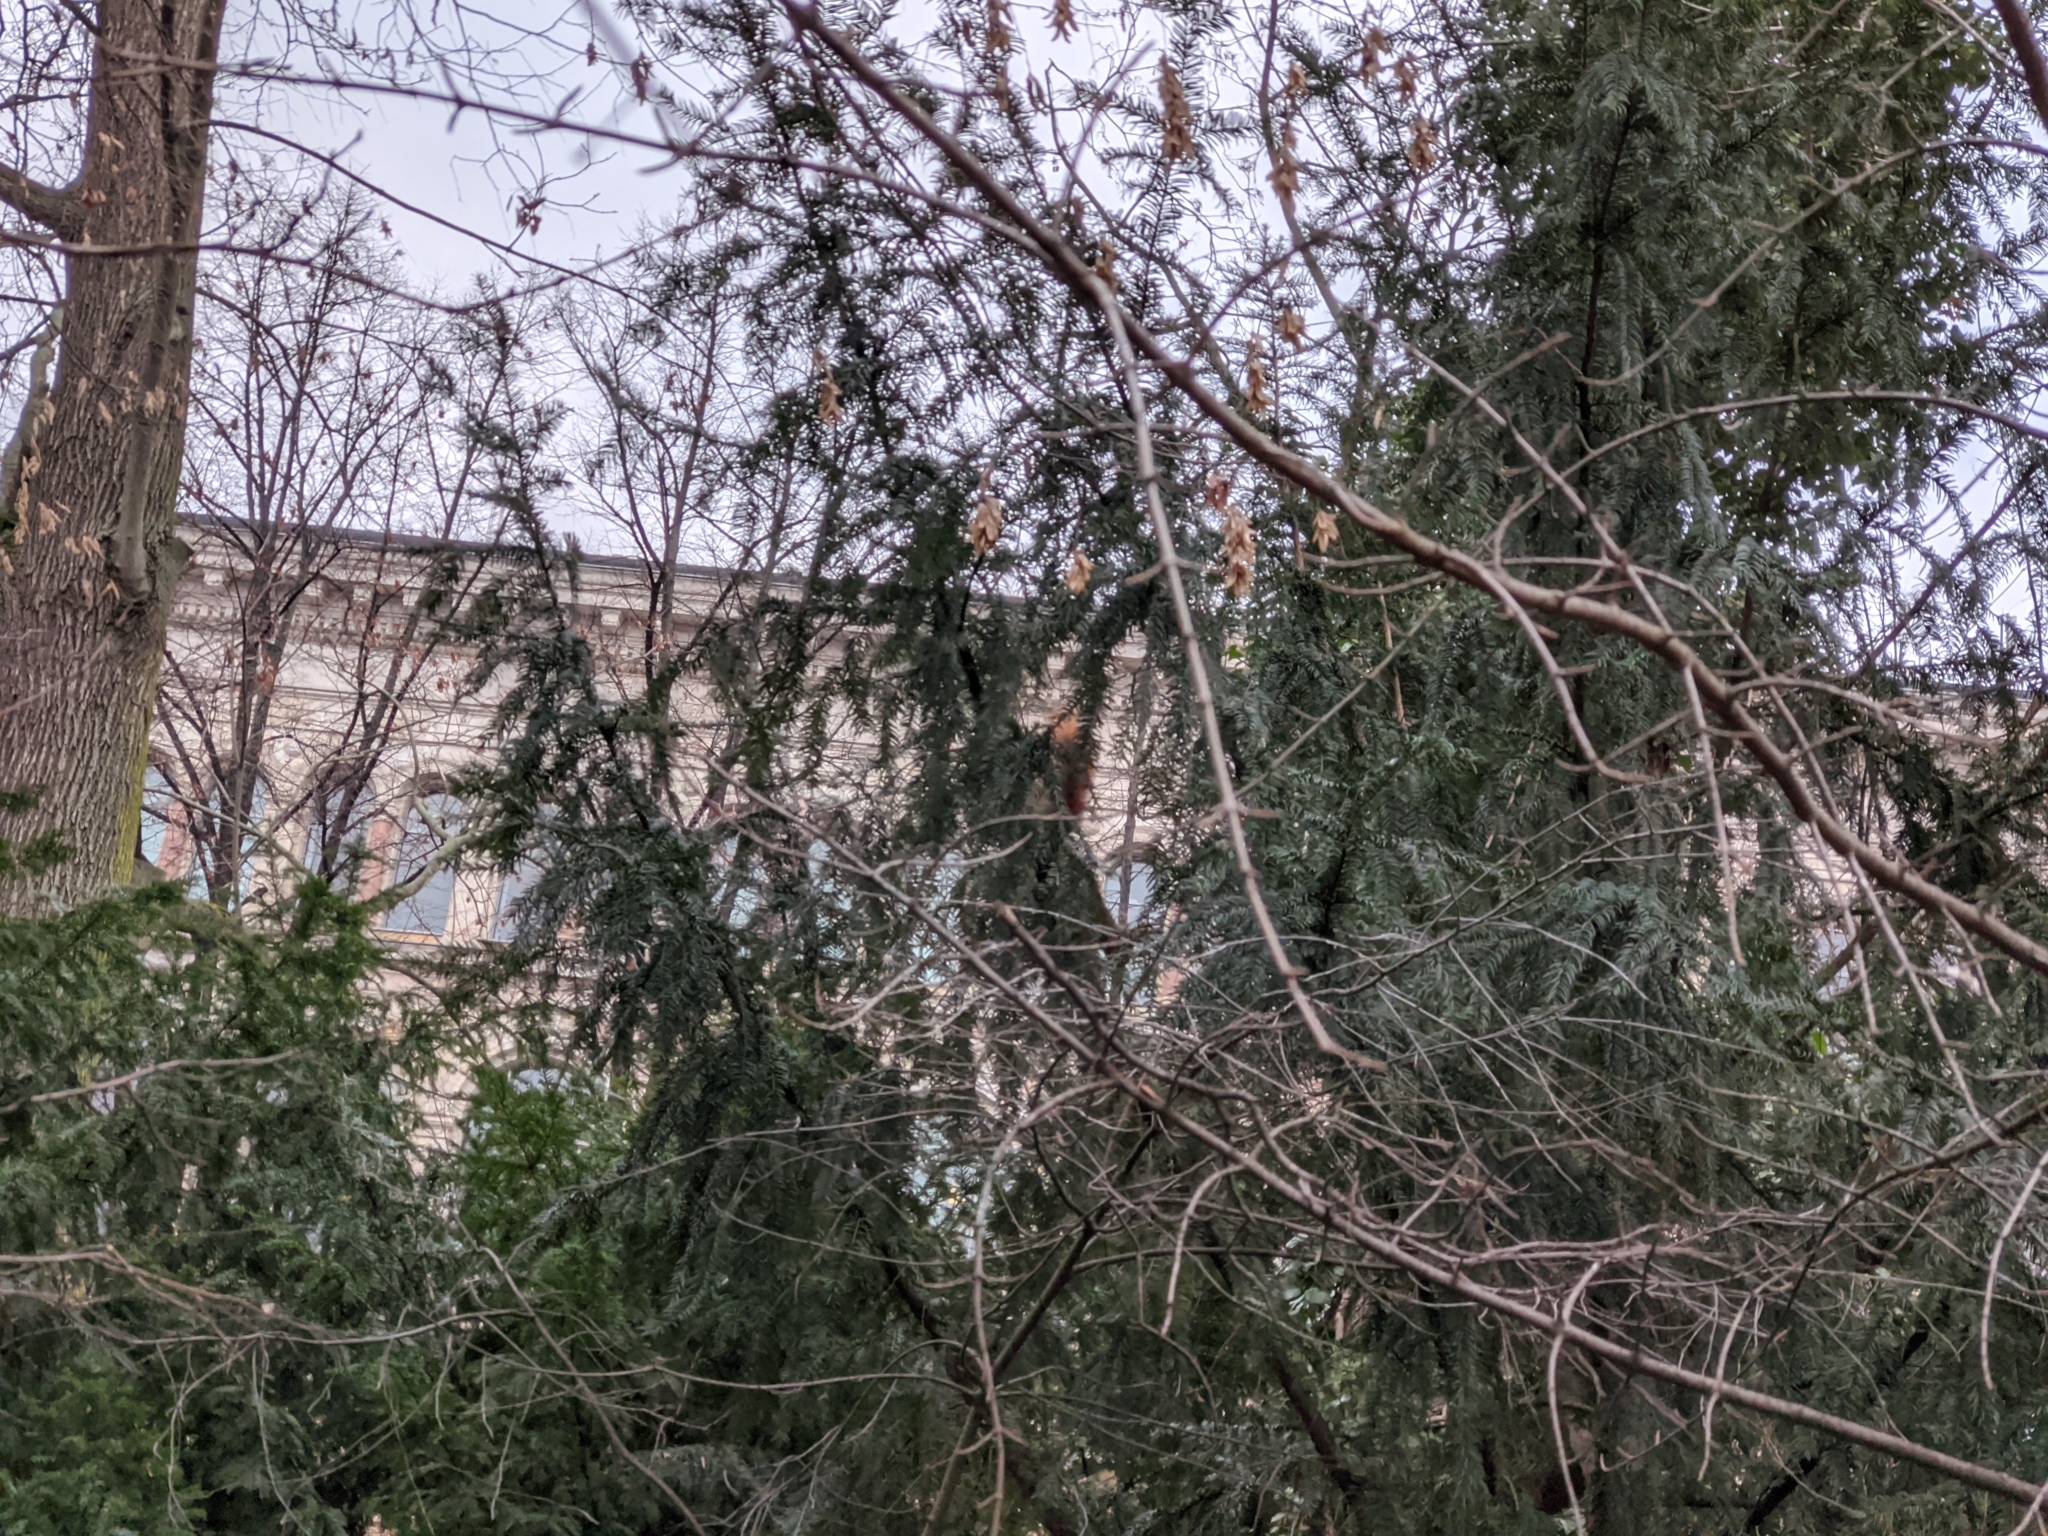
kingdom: Animalia
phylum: Chordata
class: Mammalia
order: Rodentia
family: Sciuridae
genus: Sciurus
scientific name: Sciurus vulgaris
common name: Eurasian red squirrel
